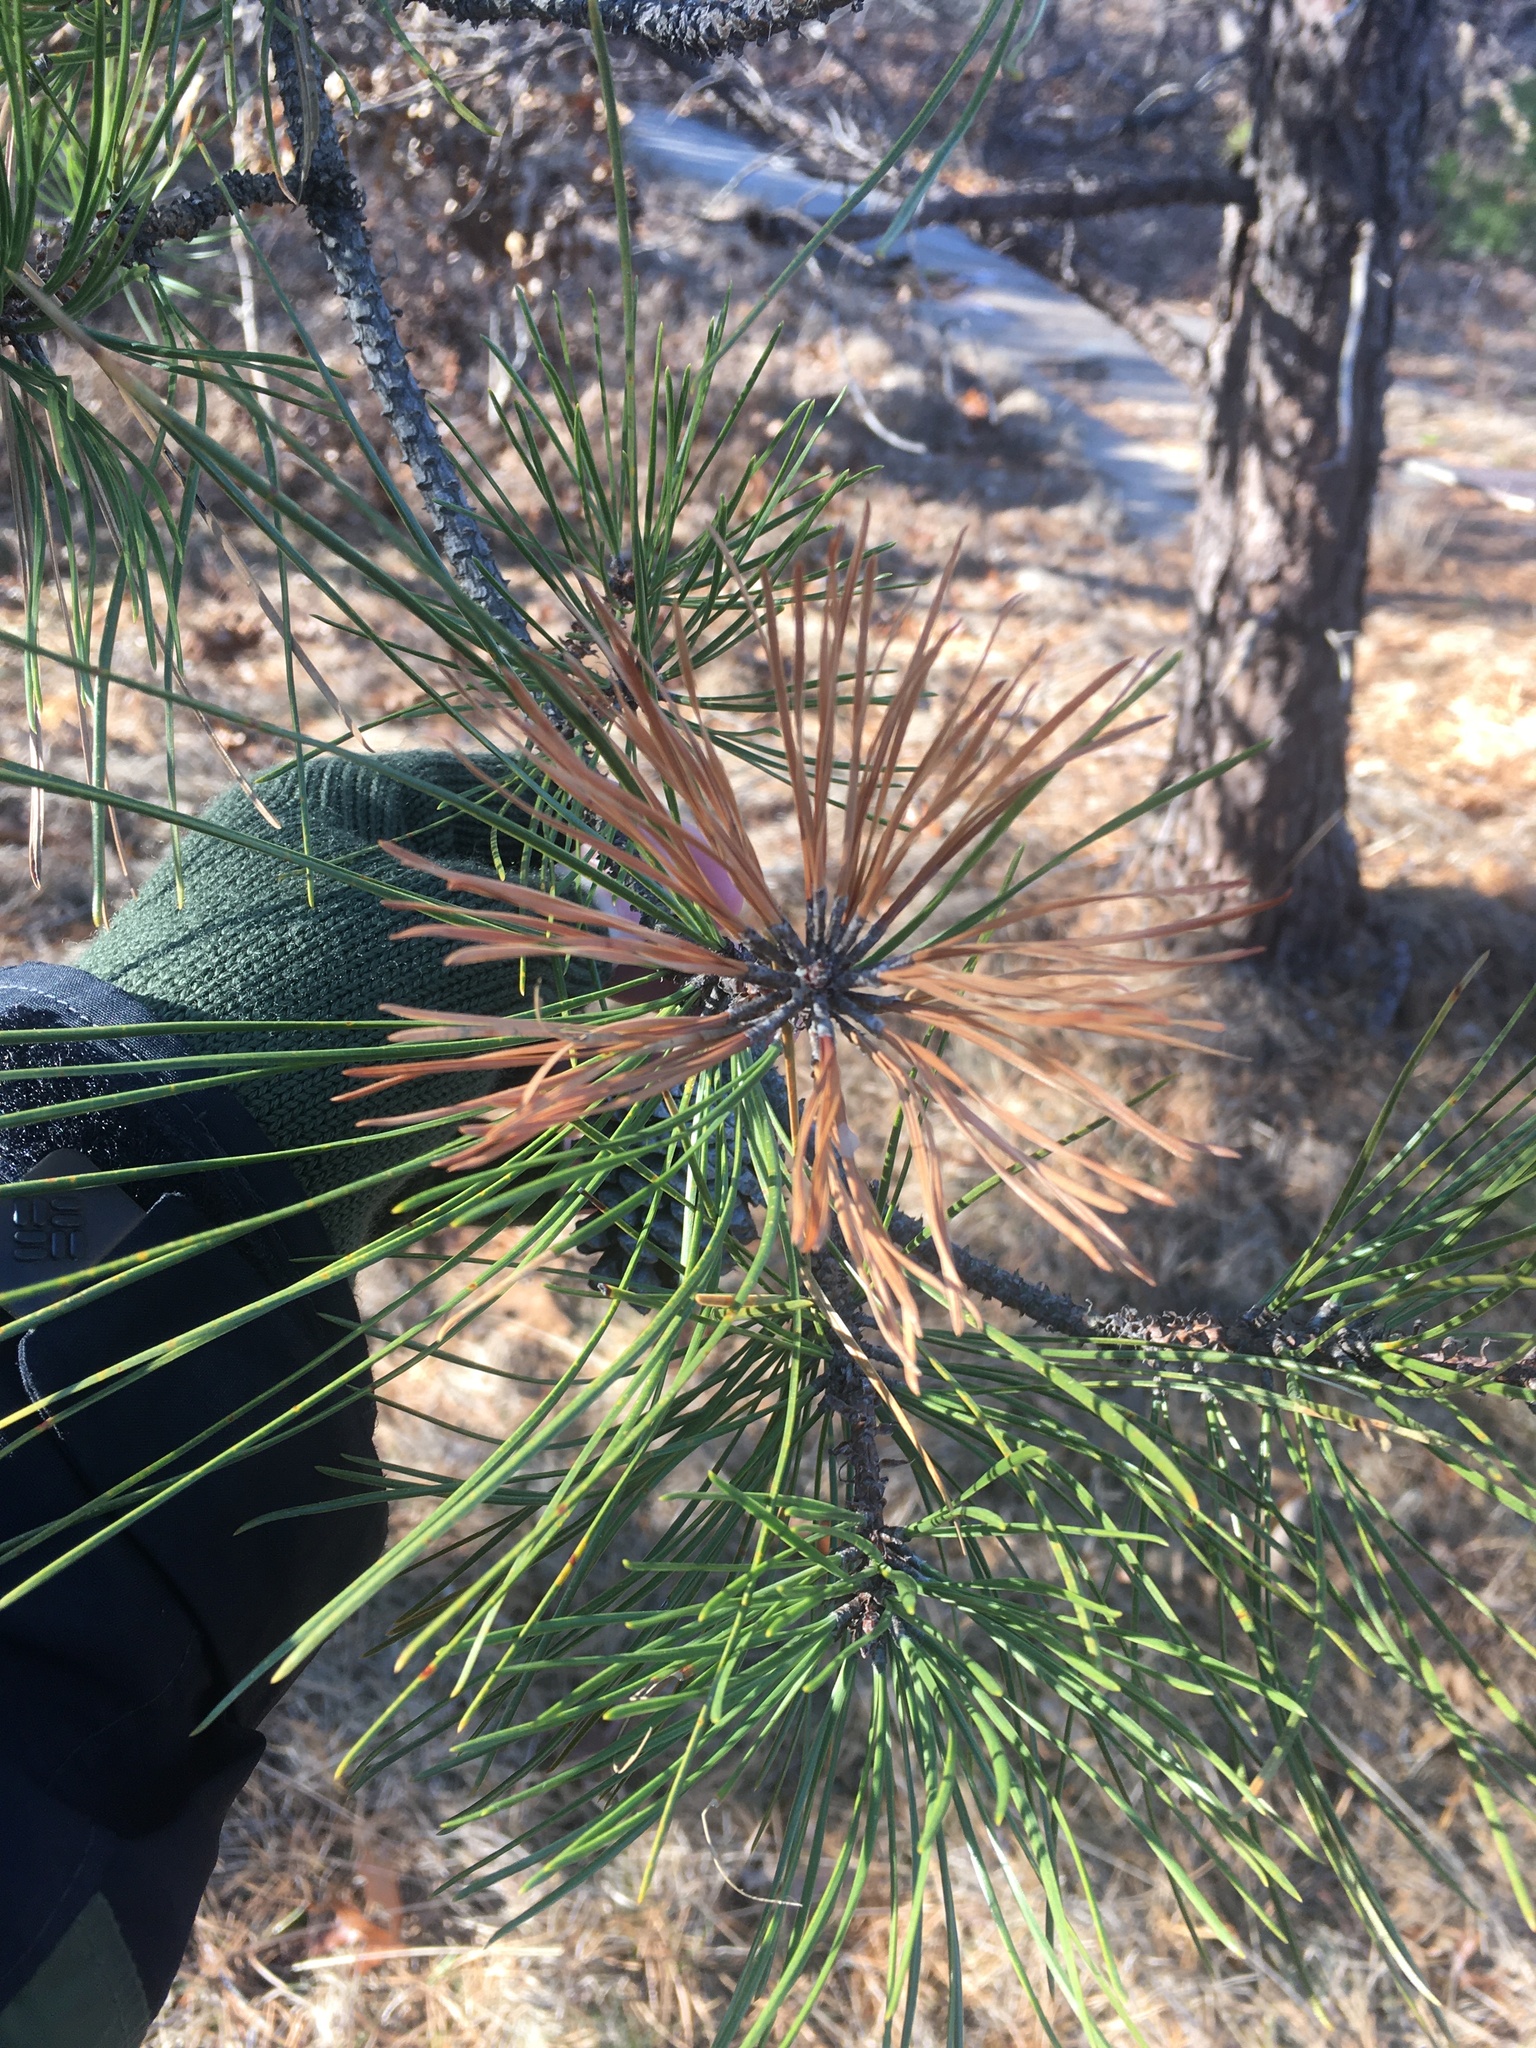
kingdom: Plantae
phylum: Tracheophyta
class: Pinopsida
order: Pinales
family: Pinaceae
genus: Pinus
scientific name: Pinus rigida
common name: Pitch pine
